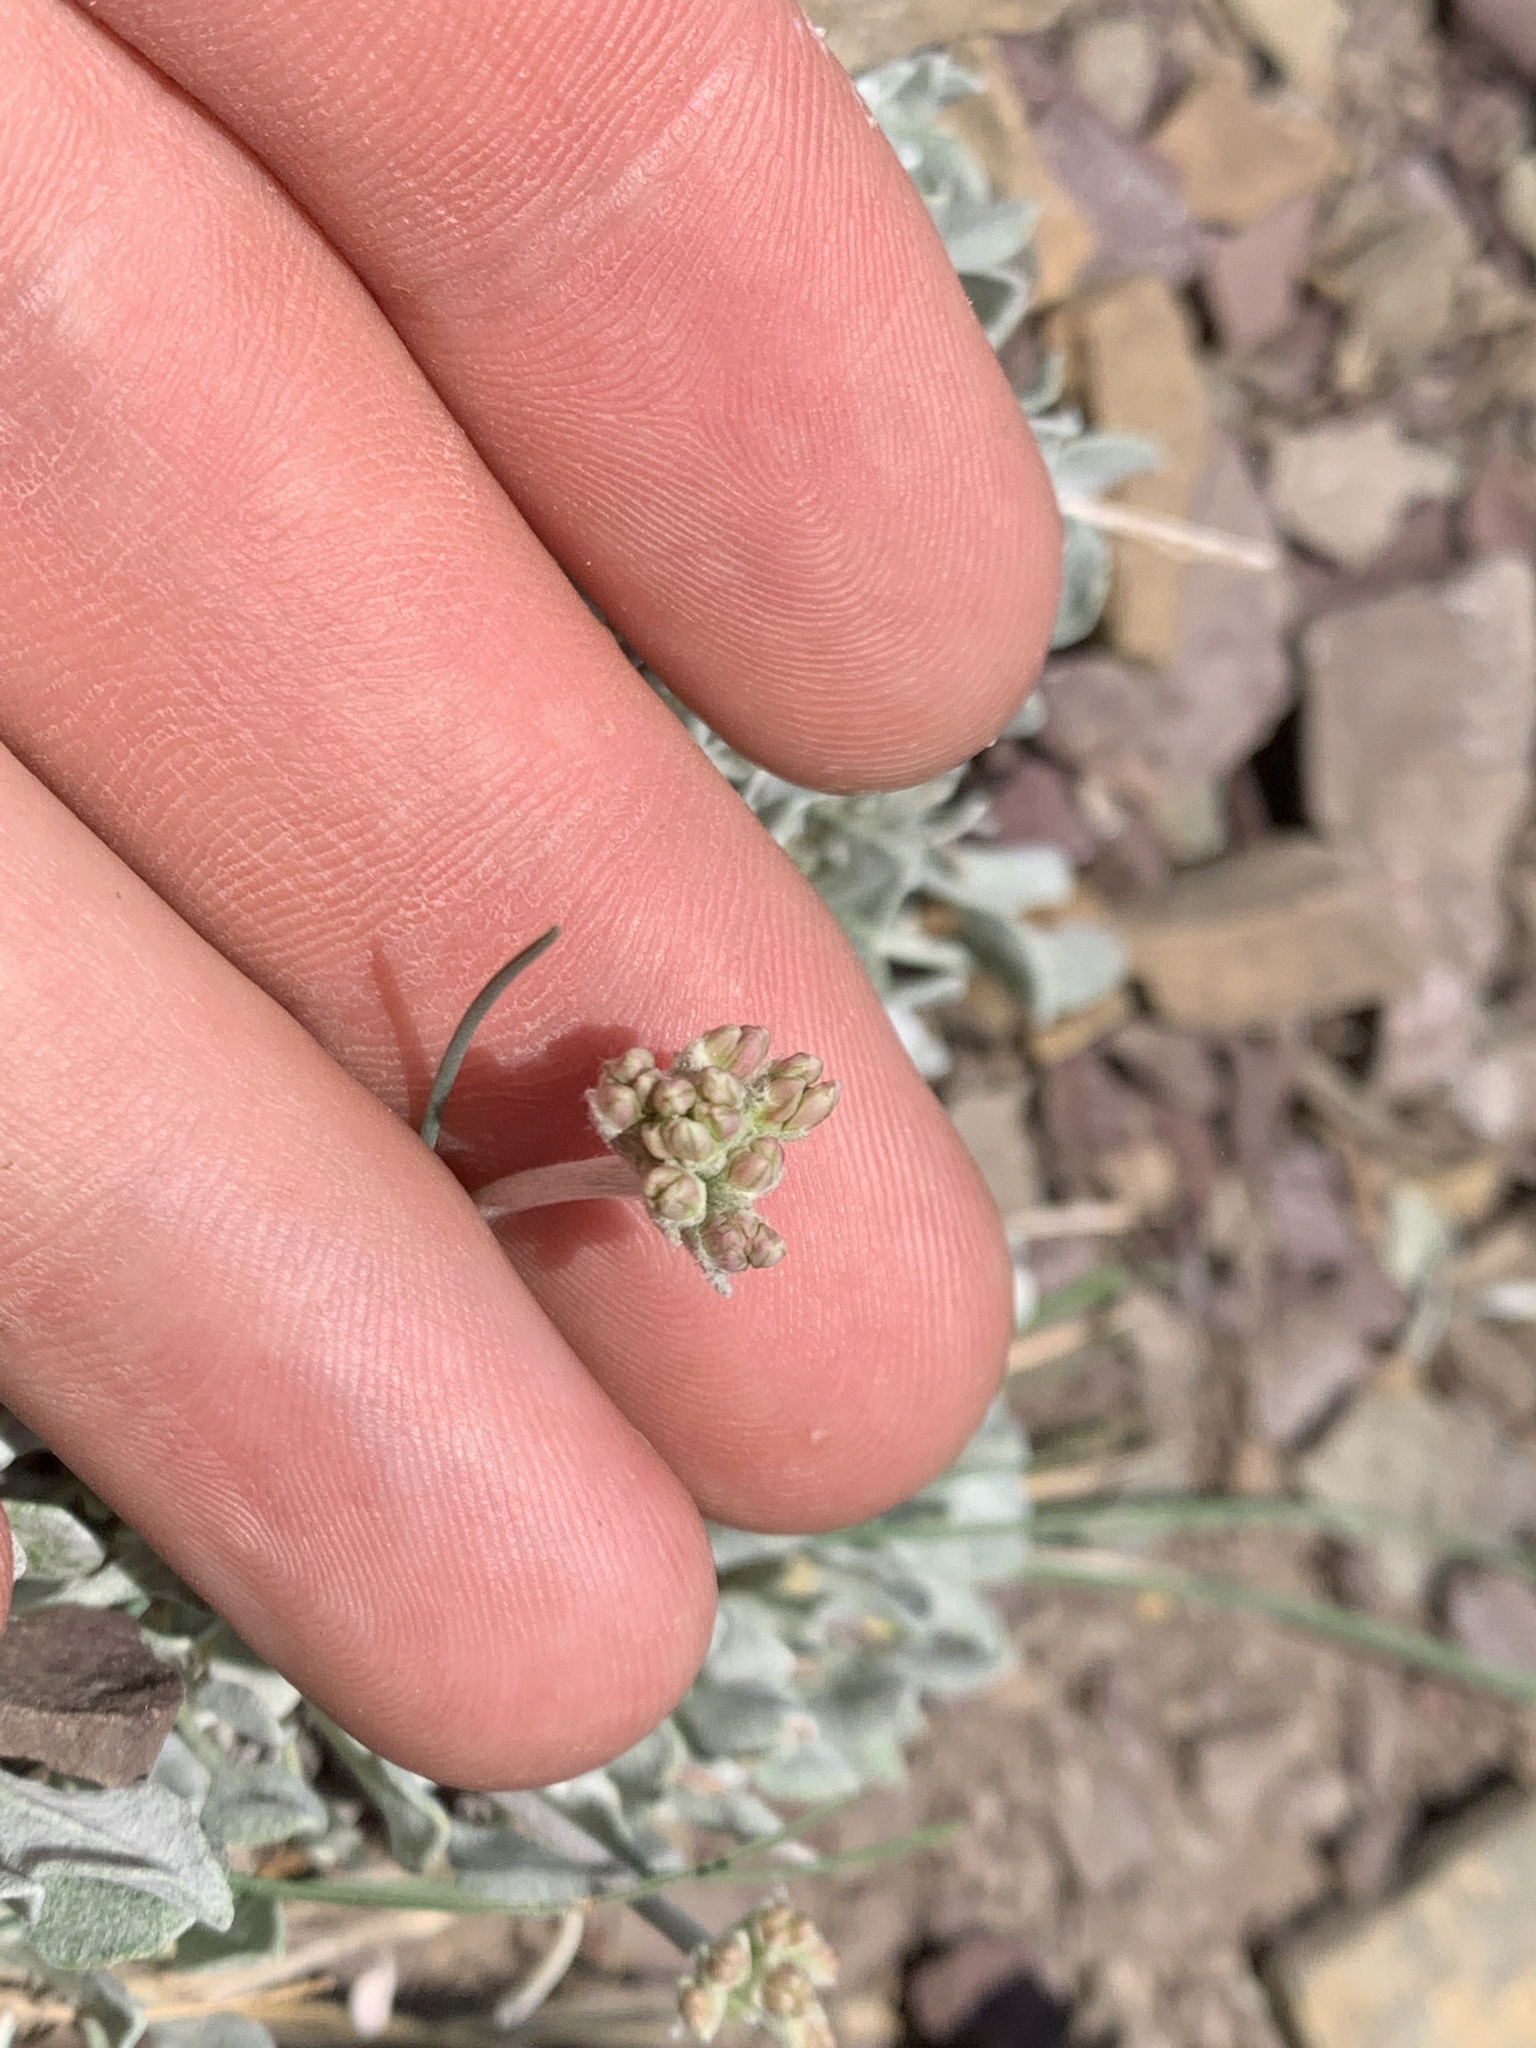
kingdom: Plantae
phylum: Tracheophyta
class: Magnoliopsida
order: Caryophyllales
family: Polygonaceae
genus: Eriogonum
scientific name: Eriogonum ovalifolium
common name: Cushion buckwheat
